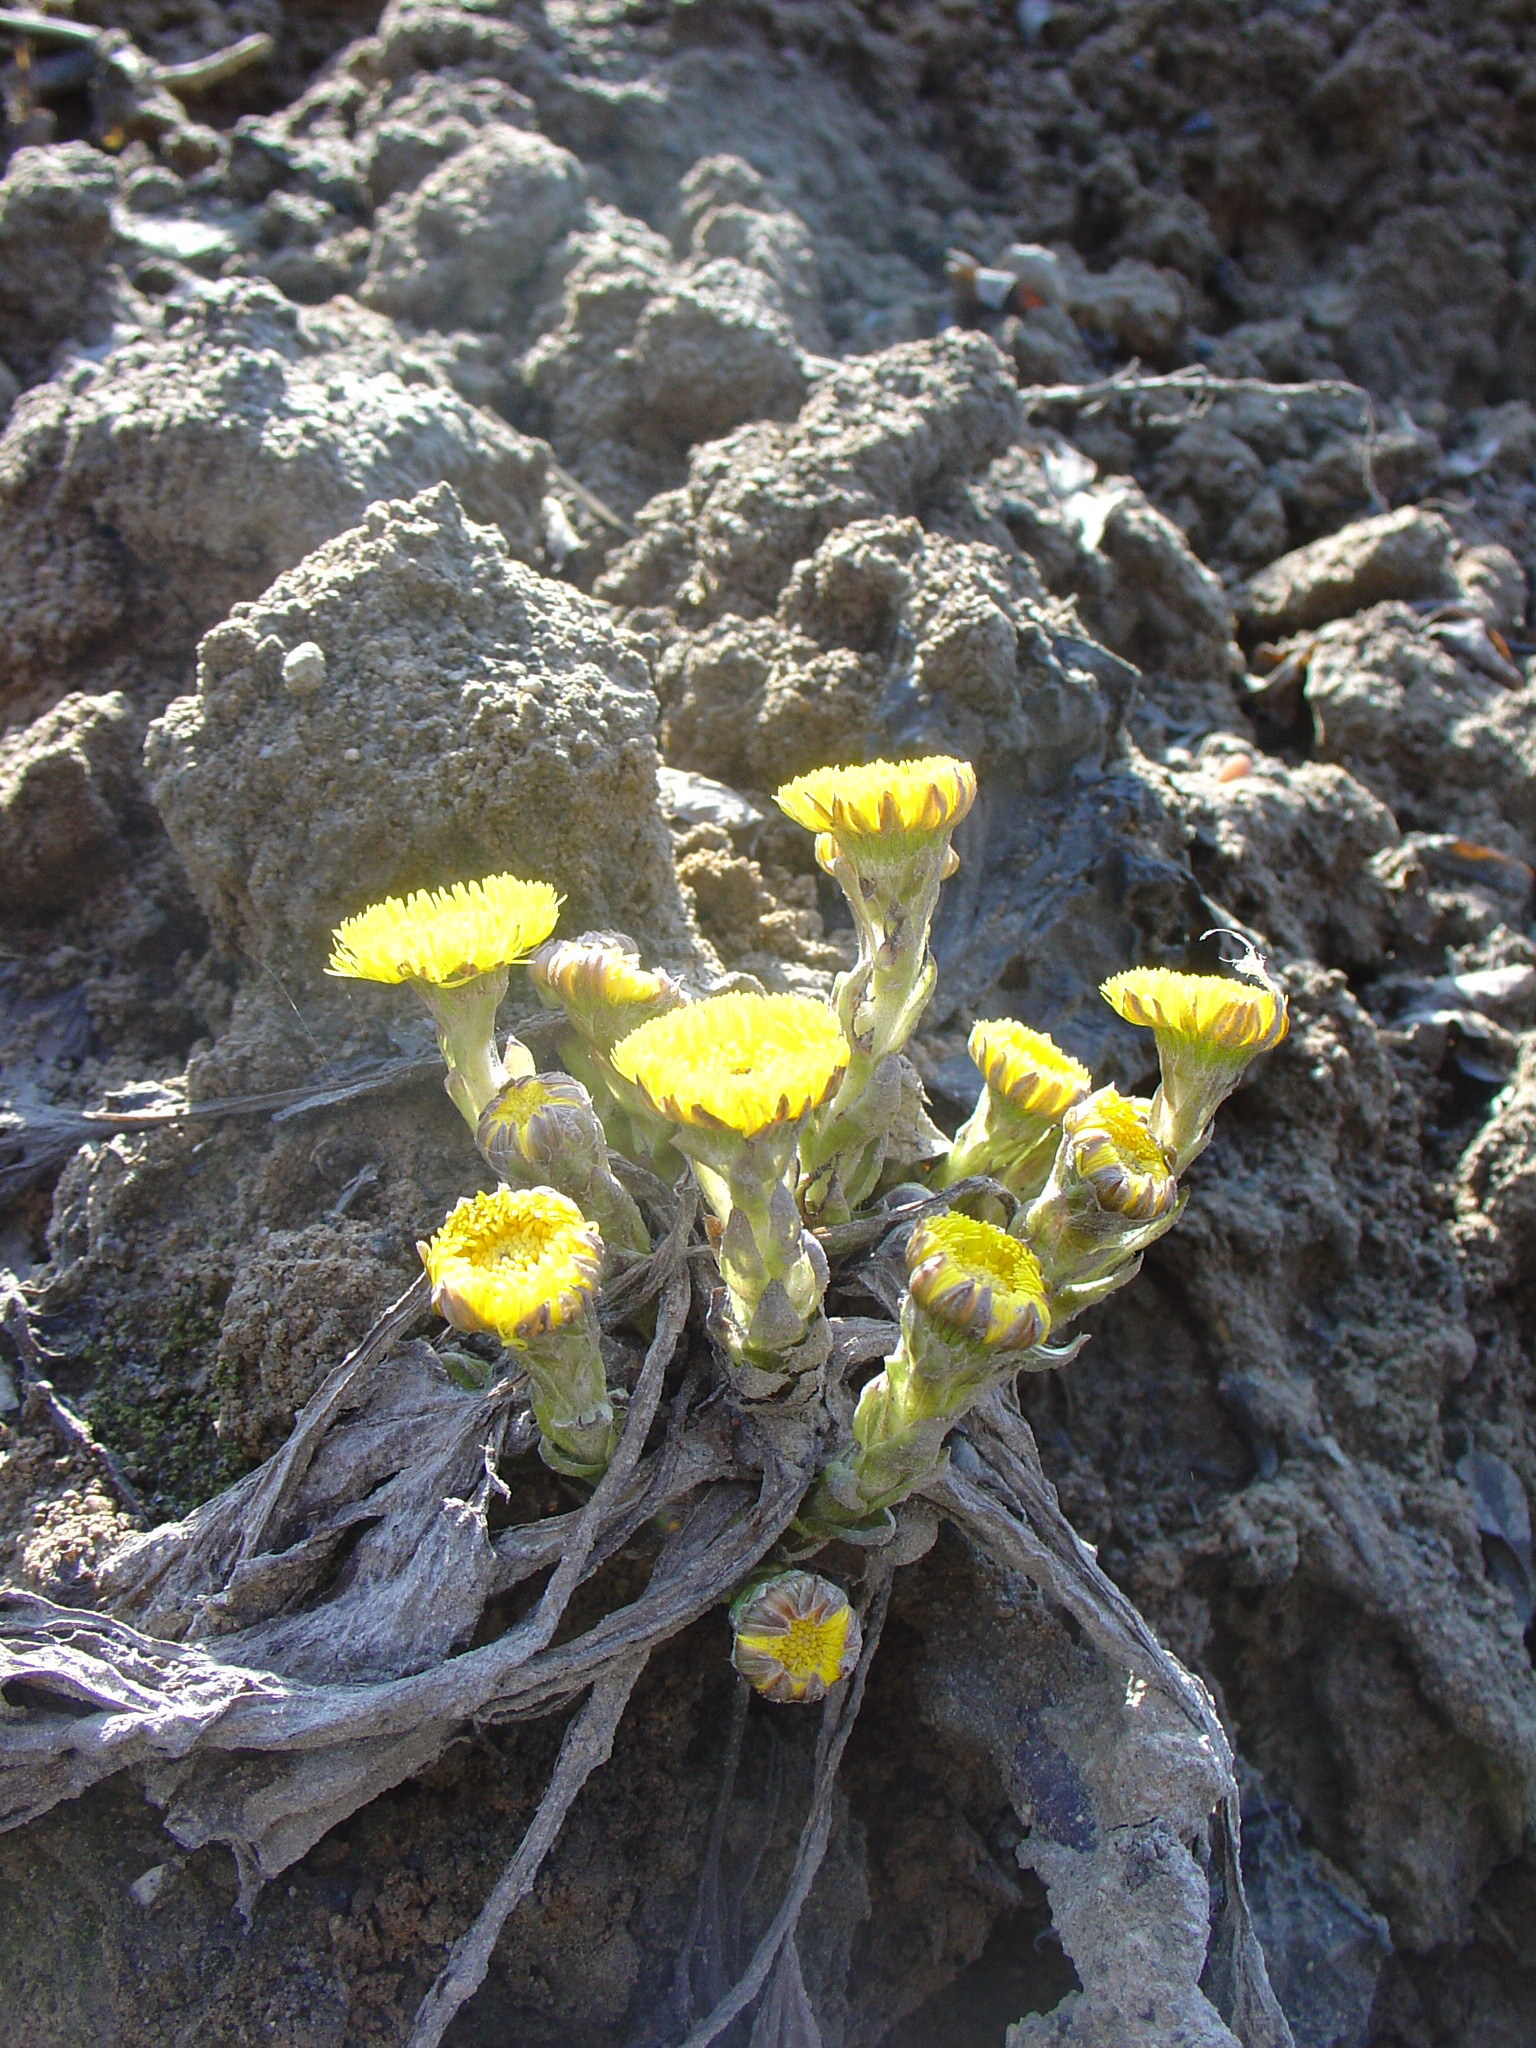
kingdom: Plantae
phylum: Tracheophyta
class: Magnoliopsida
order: Asterales
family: Asteraceae
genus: Tussilago
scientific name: Tussilago farfara
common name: Coltsfoot
